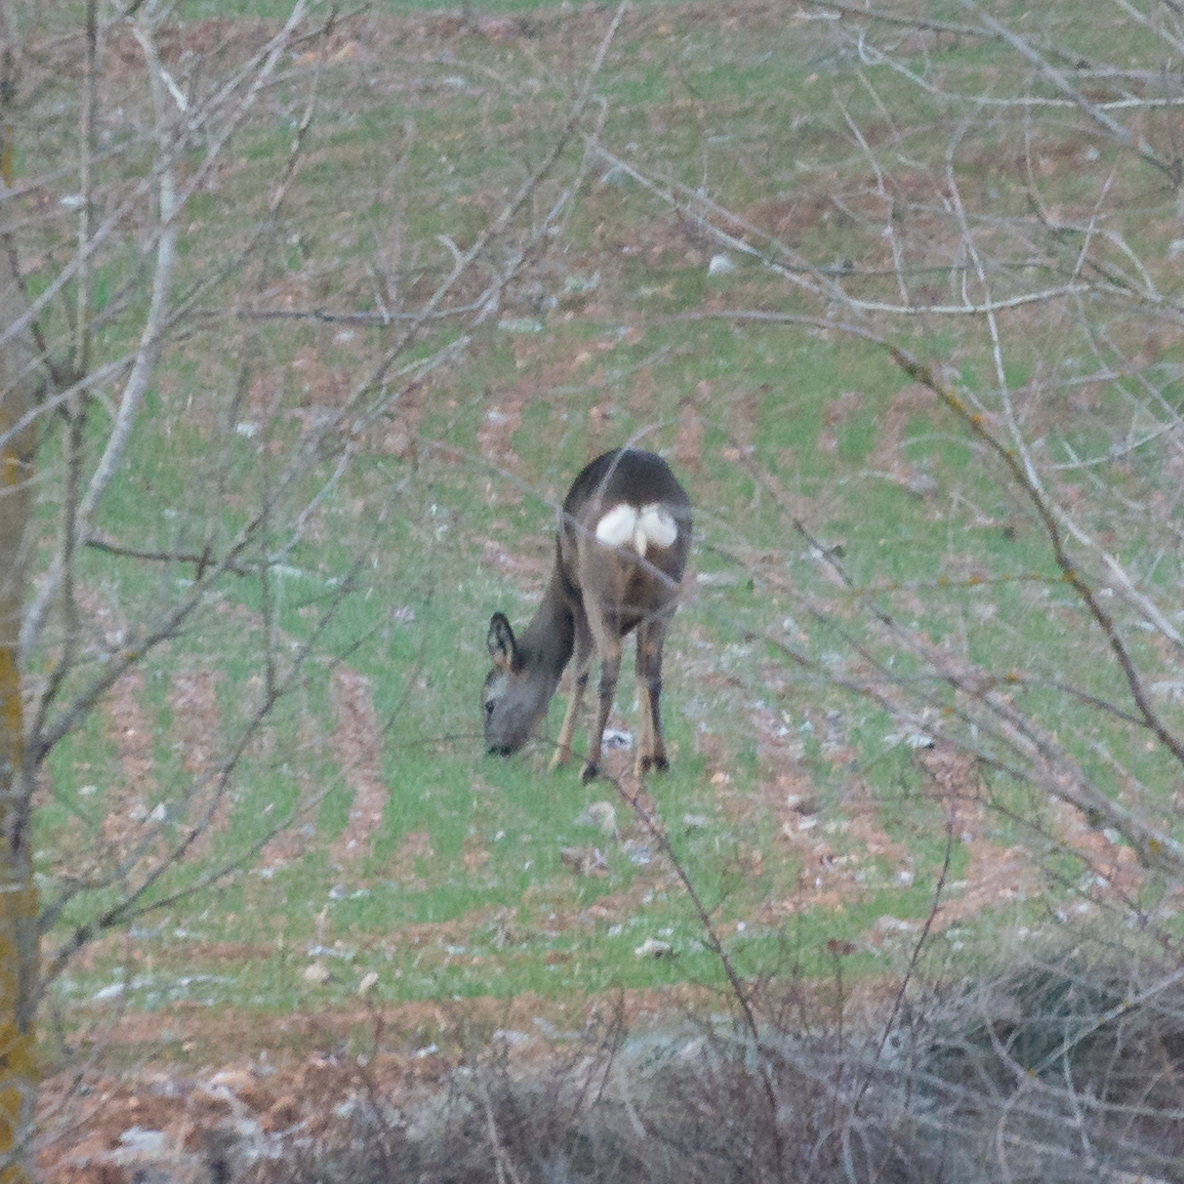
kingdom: Animalia
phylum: Chordata
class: Mammalia
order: Artiodactyla
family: Cervidae
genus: Capreolus
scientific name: Capreolus capreolus
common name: Western roe deer
